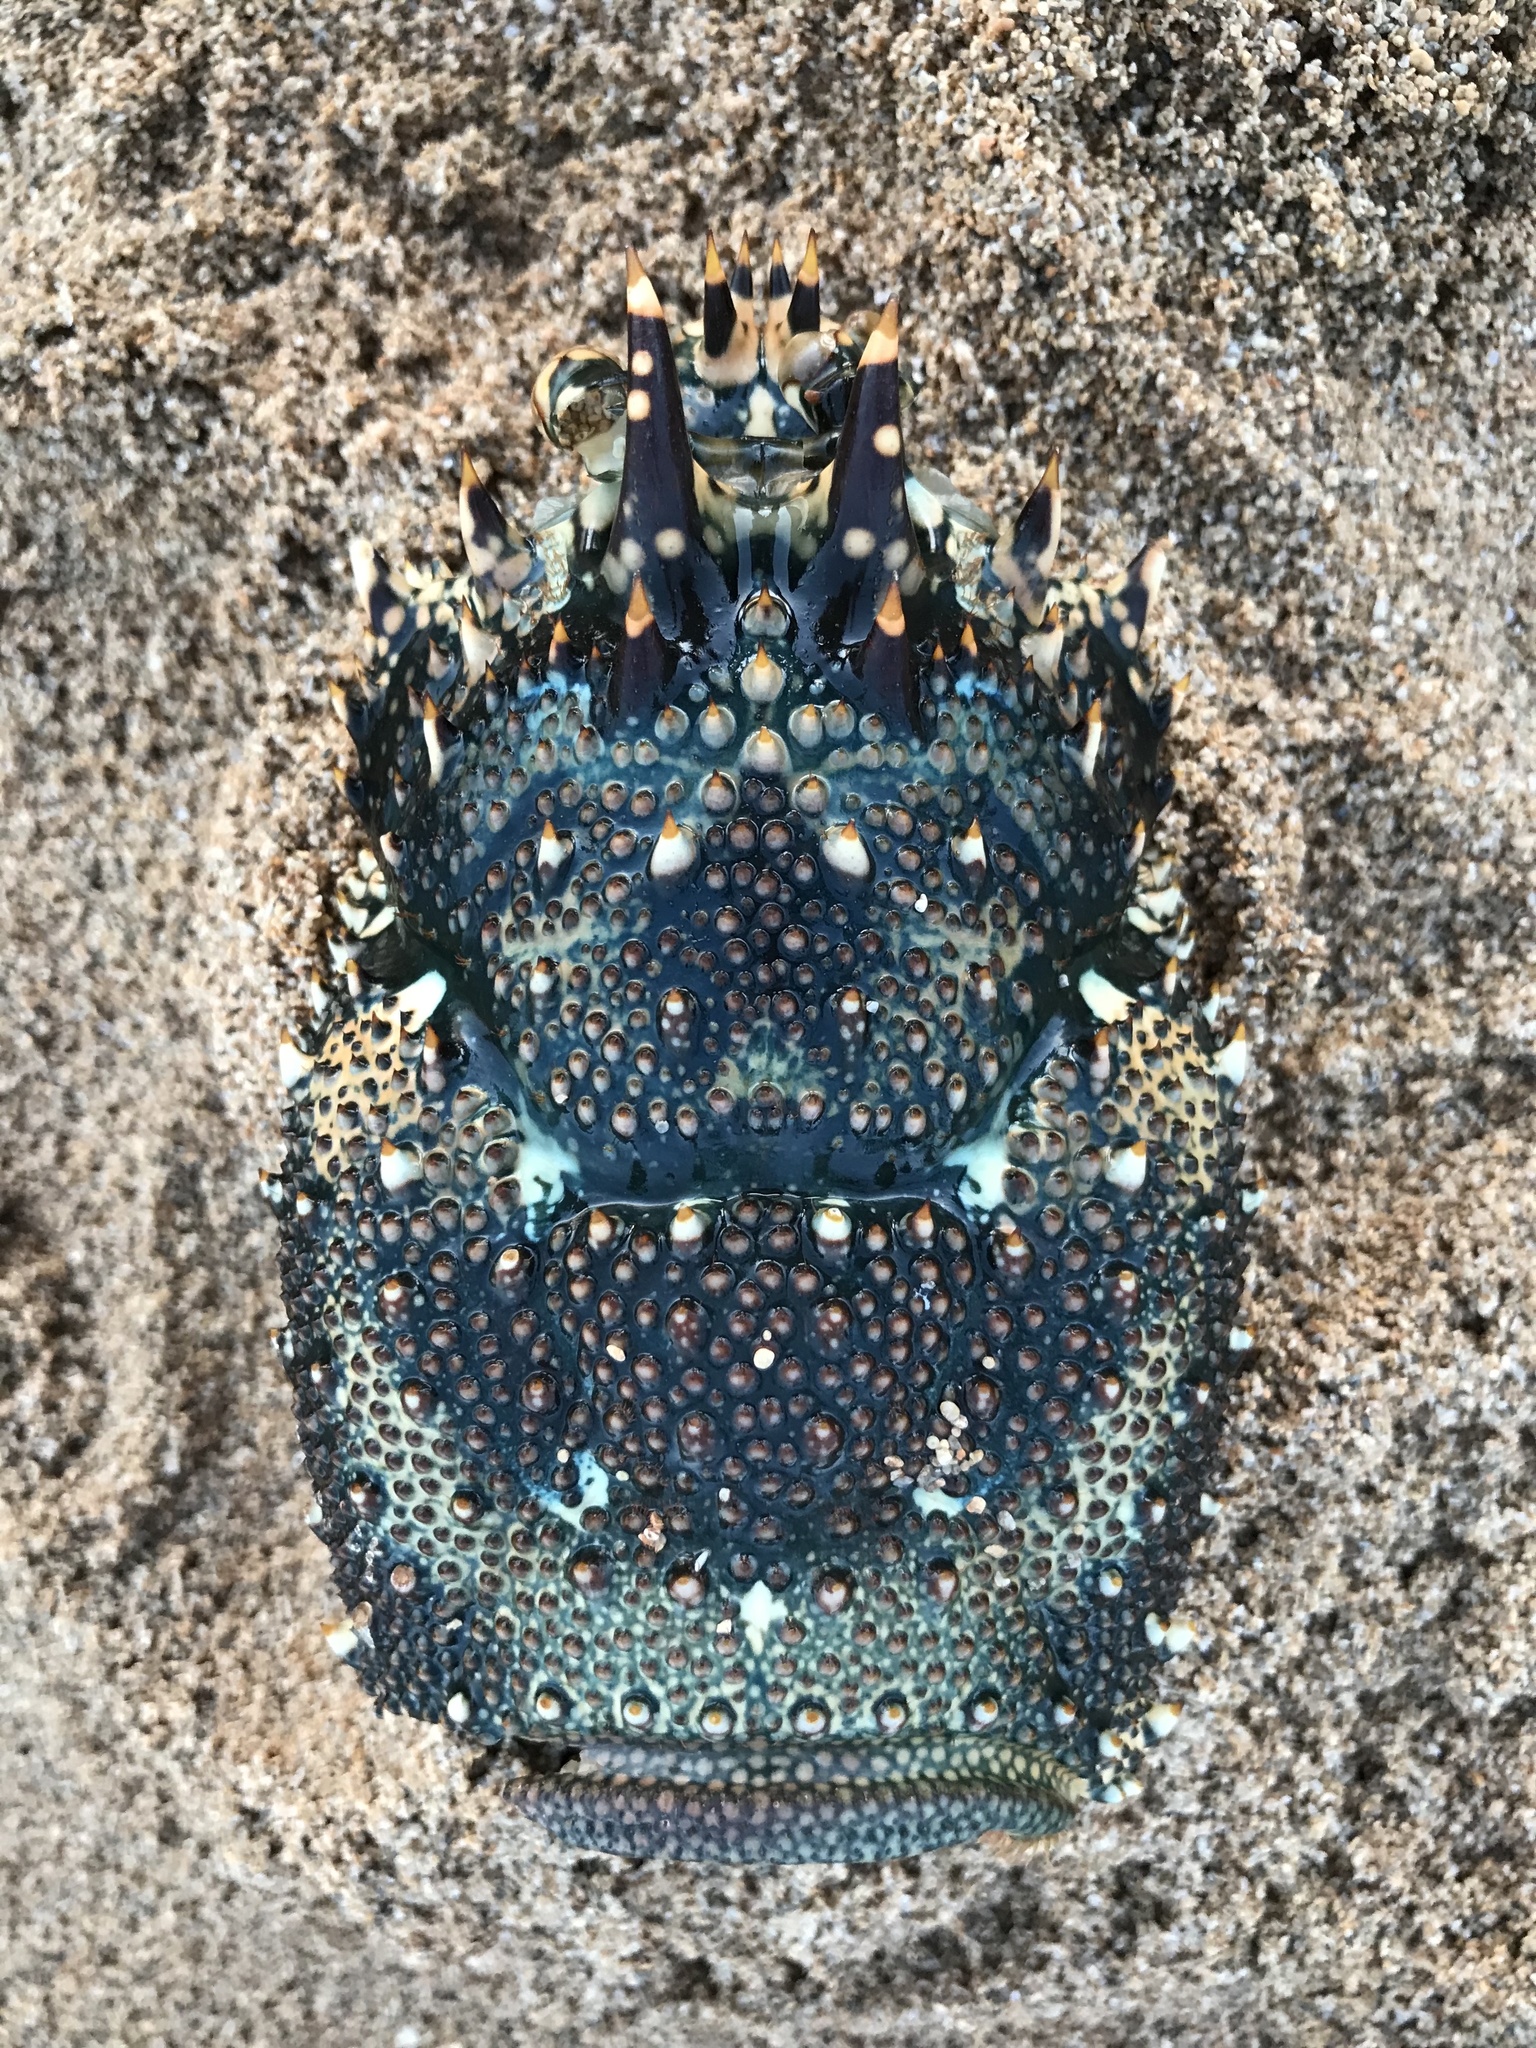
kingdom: Animalia
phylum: Arthropoda
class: Malacostraca
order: Decapoda
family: Palinuridae
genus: Panulirus
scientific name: Panulirus penicillatus
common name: Pronghorn spiny lobster
